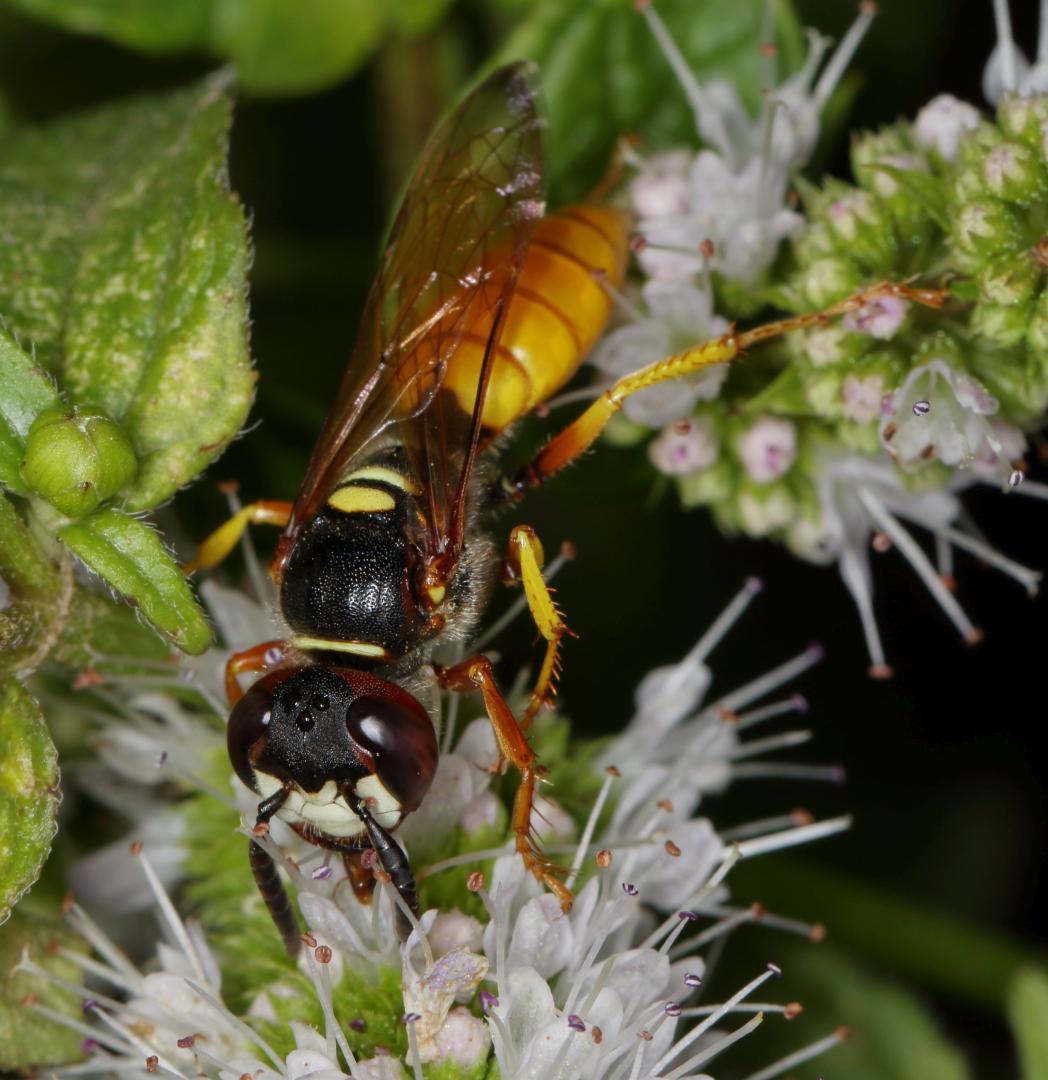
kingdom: Animalia
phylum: Arthropoda
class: Insecta
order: Hymenoptera
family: Crabronidae
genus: Philanthus
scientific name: Philanthus triangulum
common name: Bee wolf
